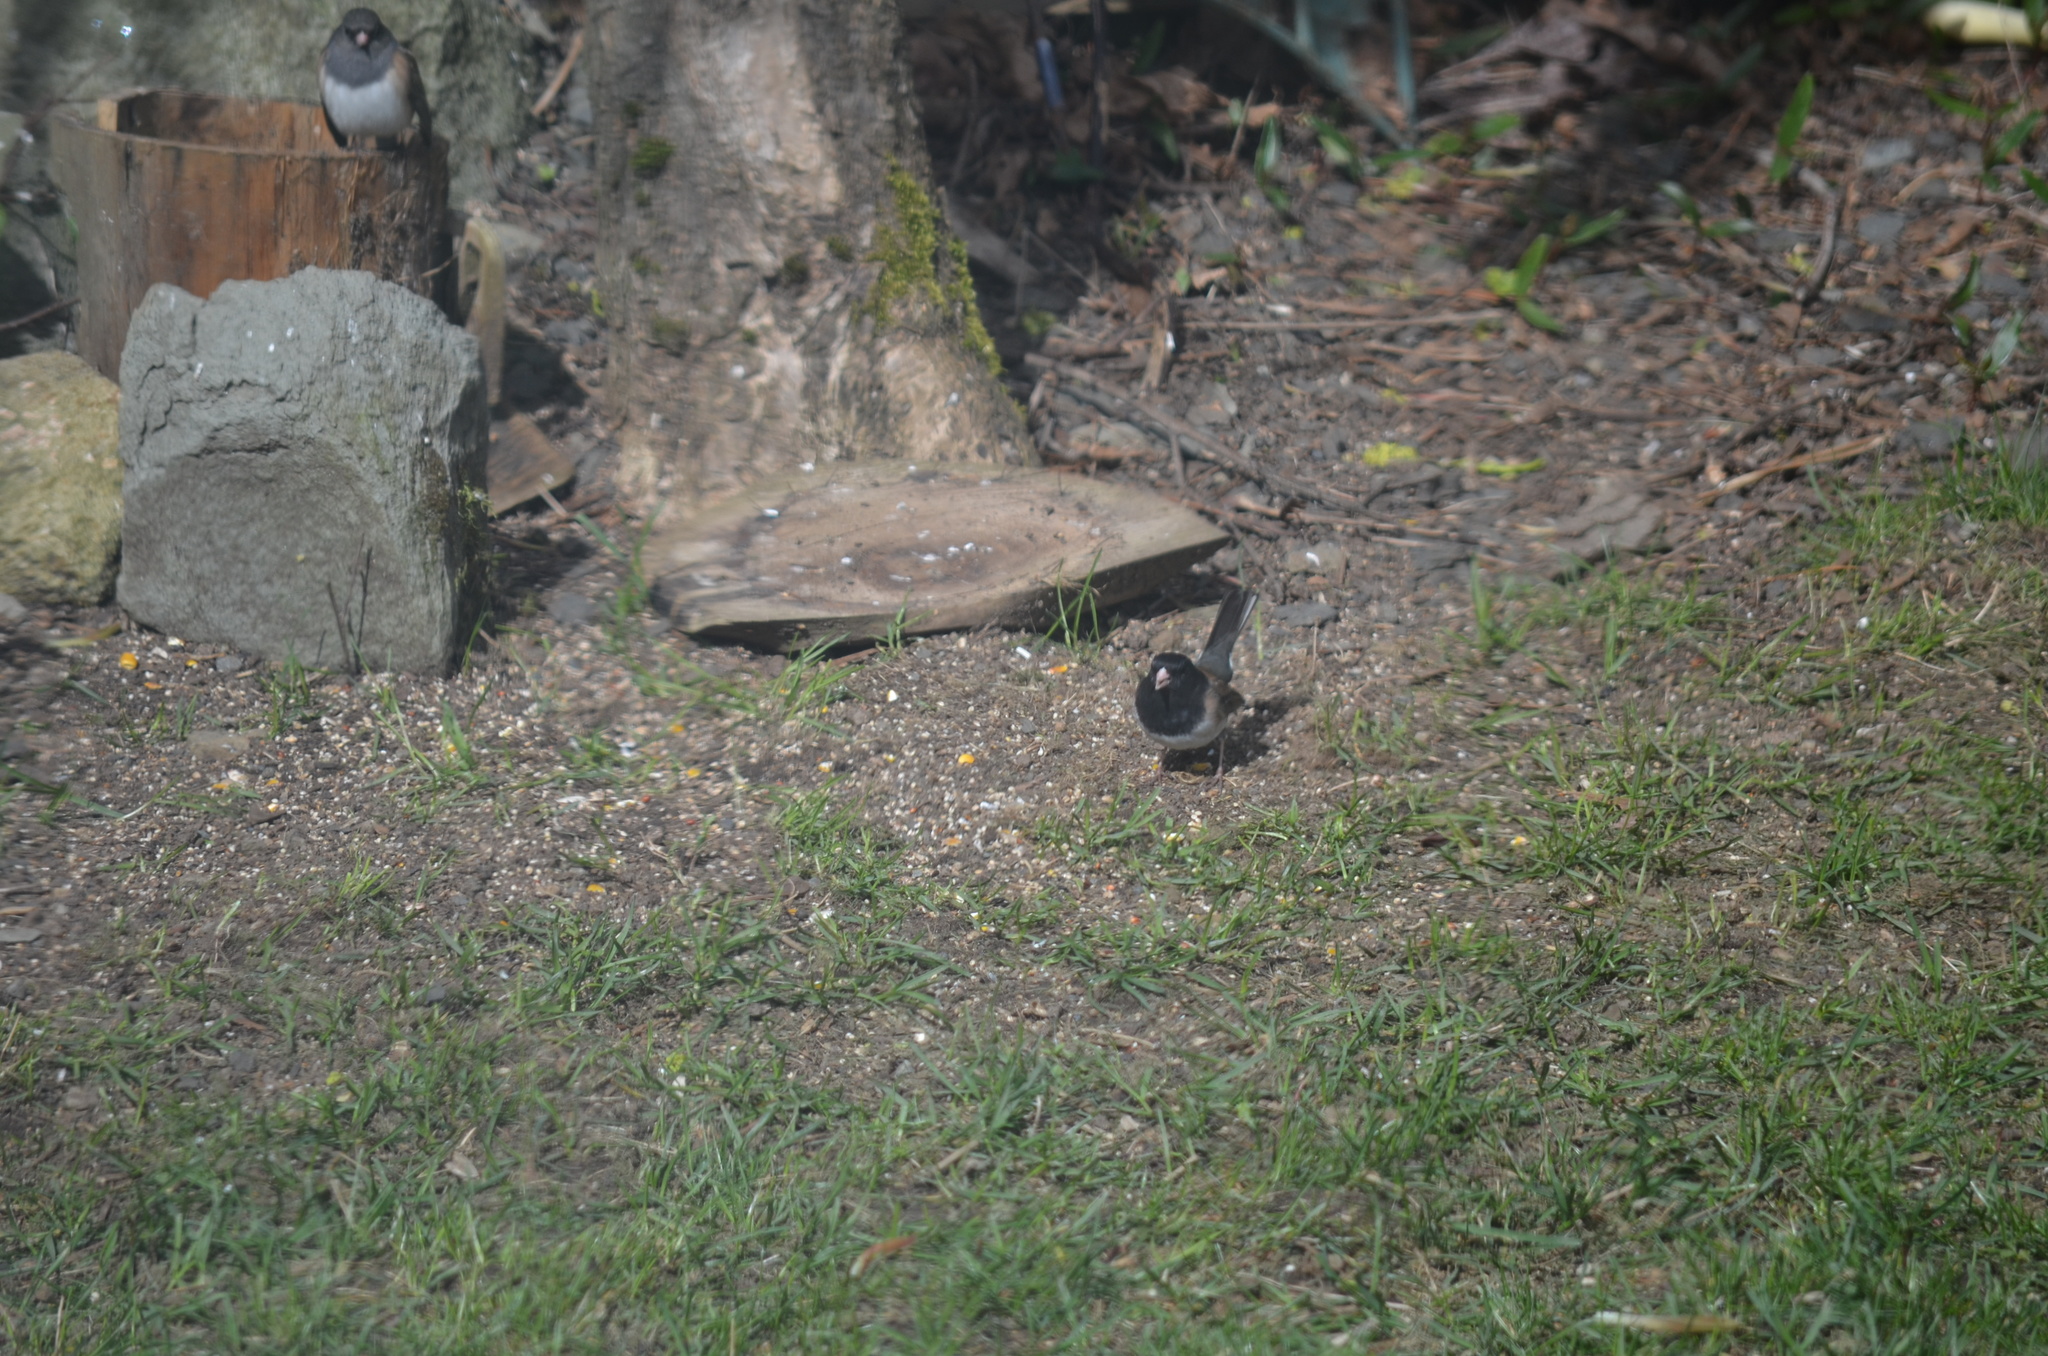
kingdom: Animalia
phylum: Chordata
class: Aves
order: Passeriformes
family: Passerellidae
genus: Junco
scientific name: Junco hyemalis
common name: Dark-eyed junco
